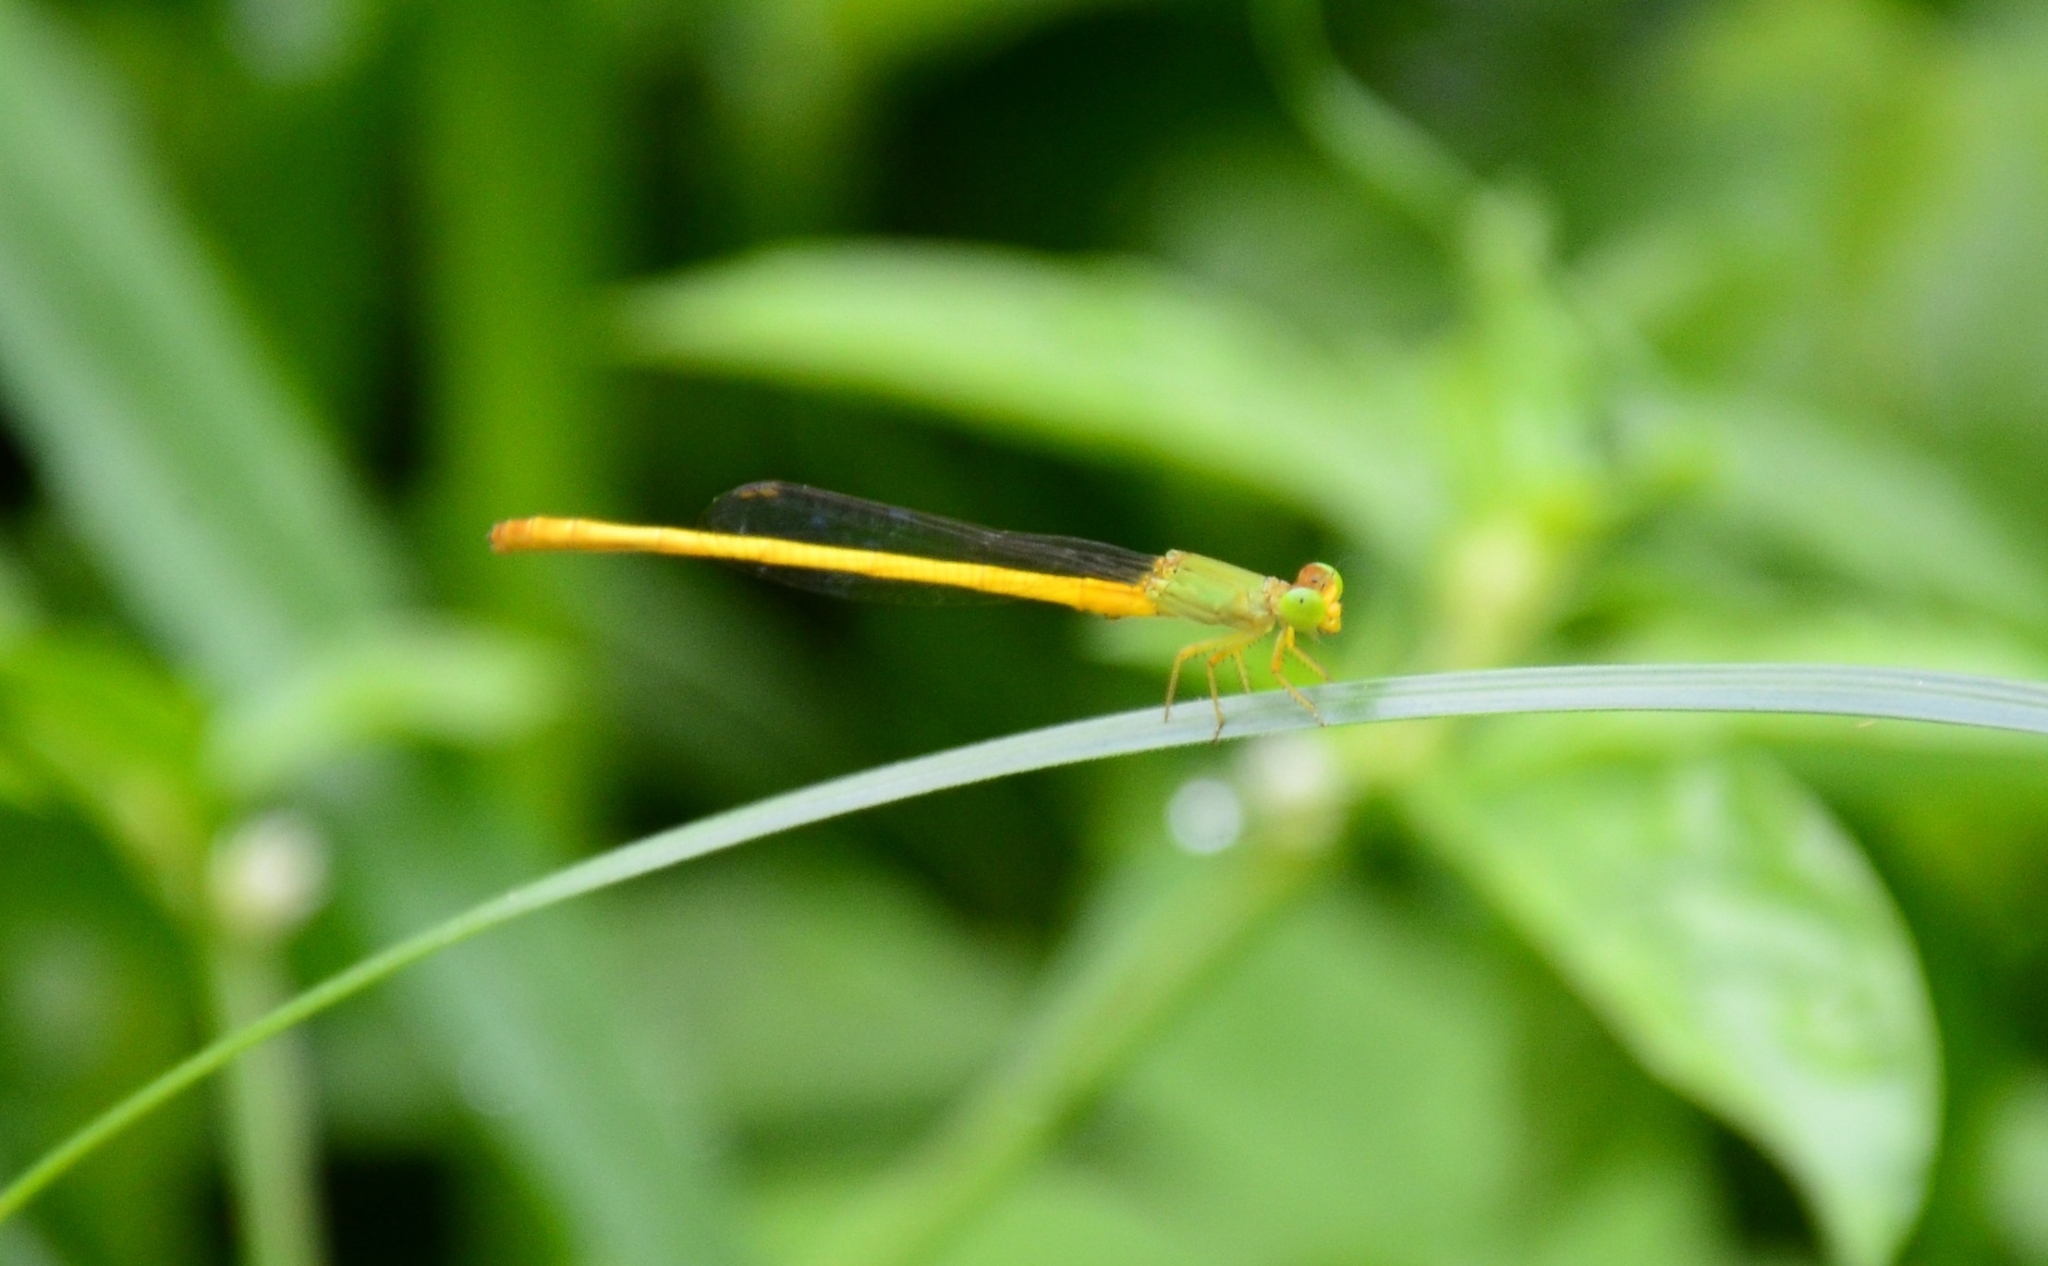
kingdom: Animalia
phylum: Arthropoda
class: Insecta
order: Odonata
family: Coenagrionidae
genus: Ceriagrion
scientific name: Ceriagrion coromandelianum
